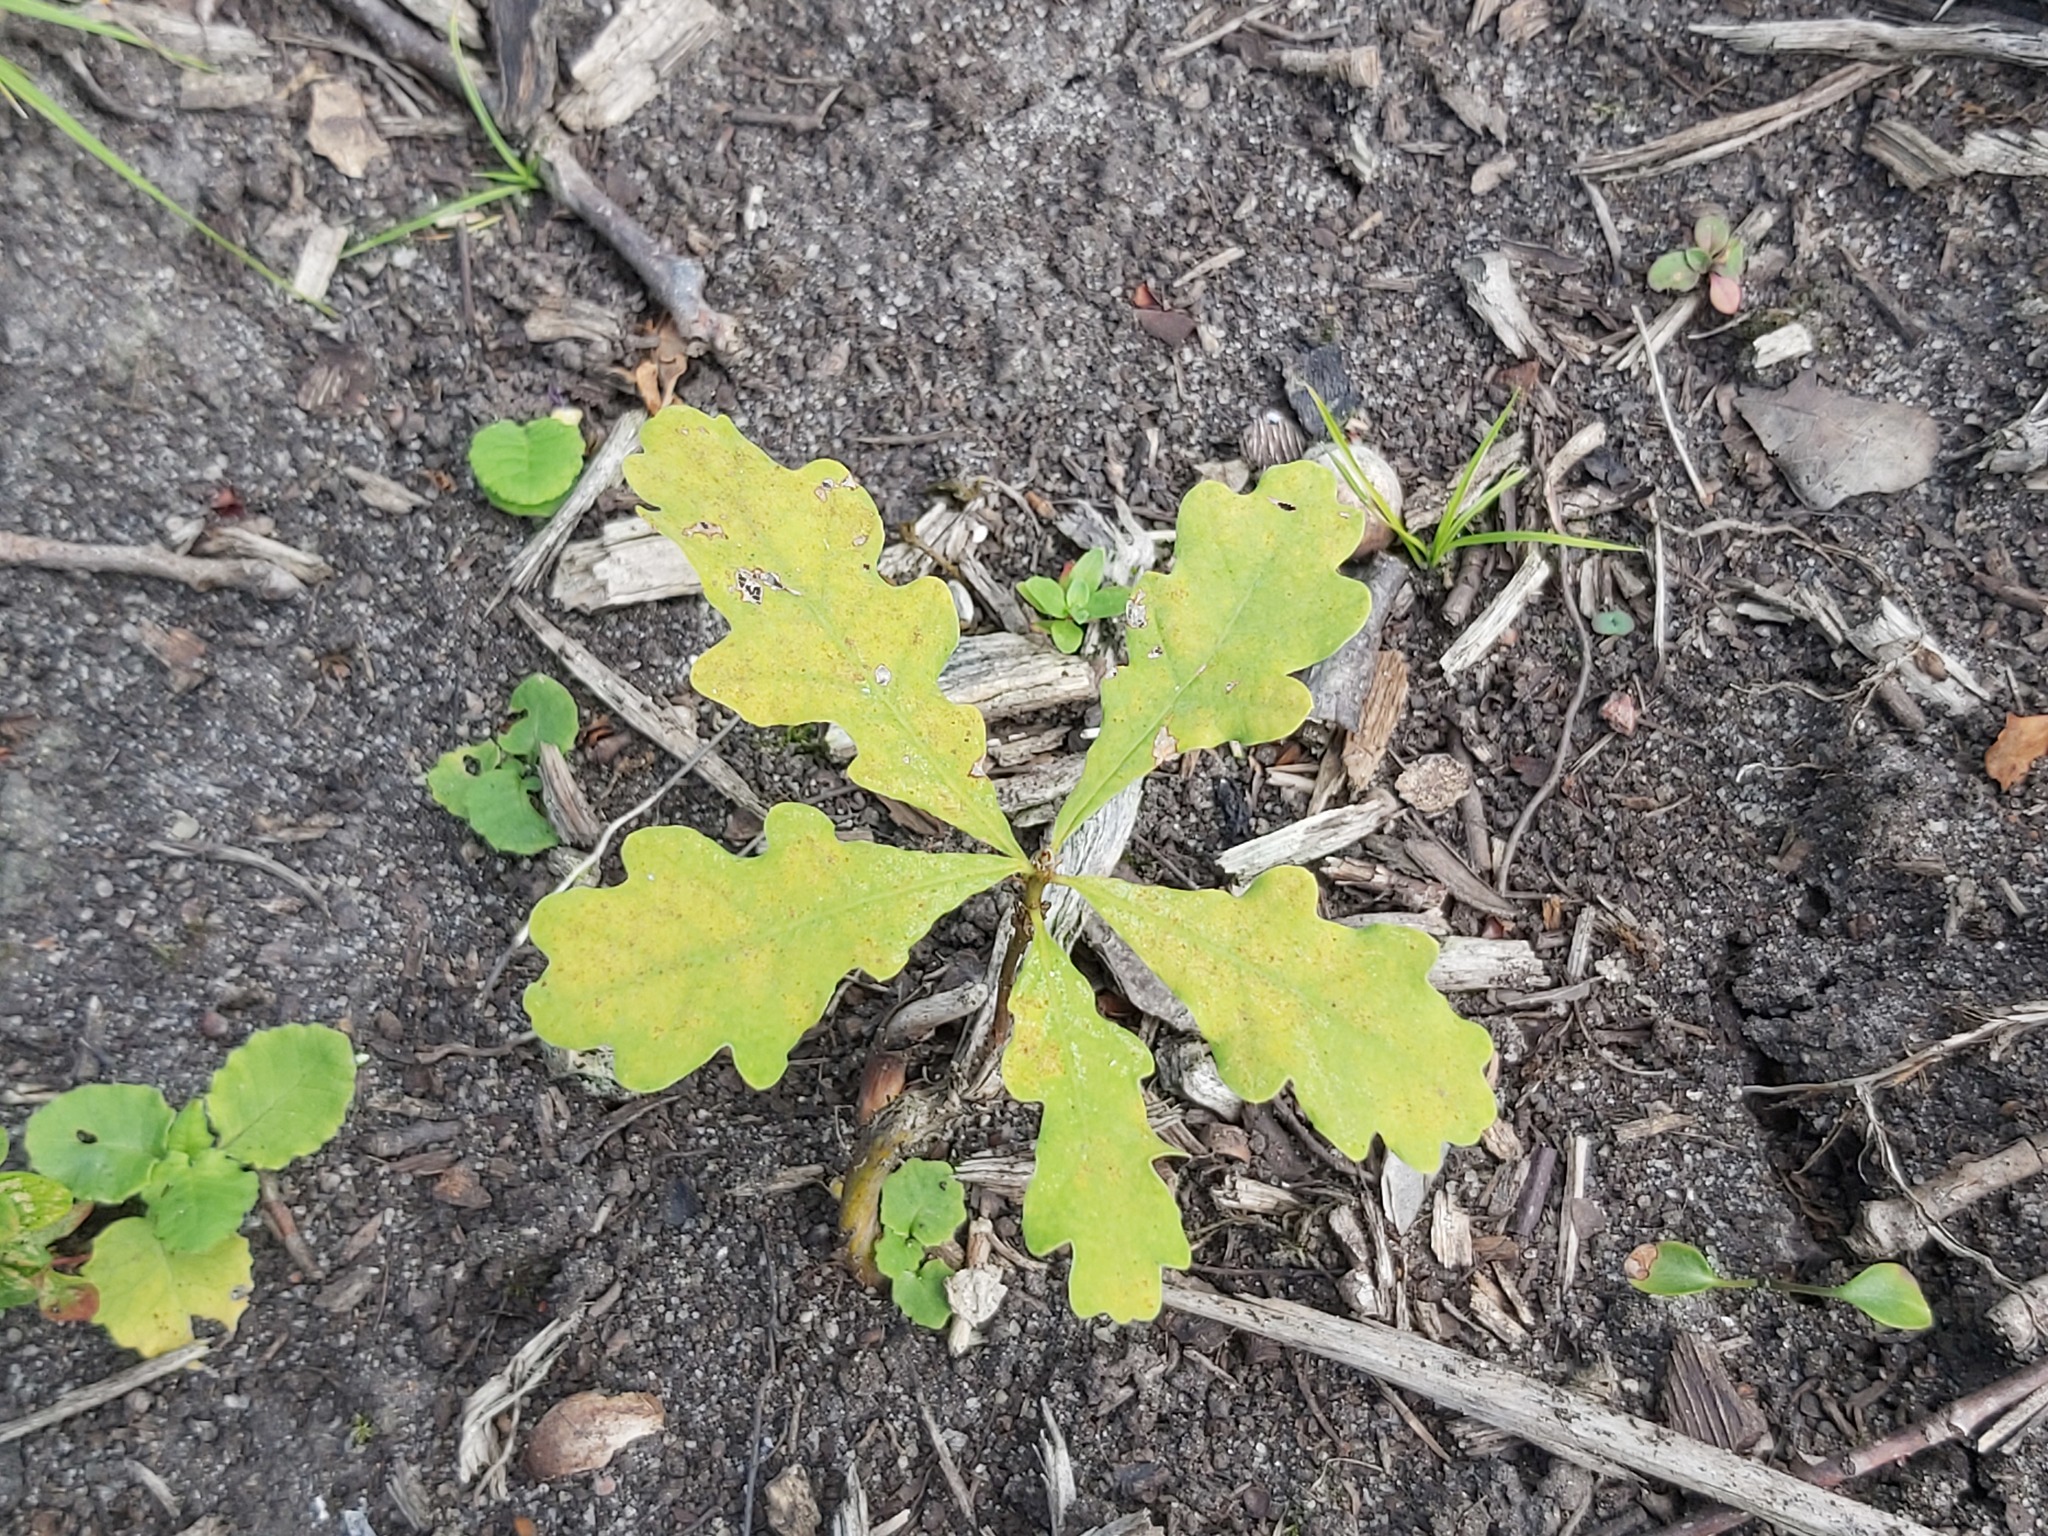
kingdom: Plantae
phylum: Tracheophyta
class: Magnoliopsida
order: Fagales
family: Fagaceae
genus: Quercus
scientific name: Quercus robur
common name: Pedunculate oak
